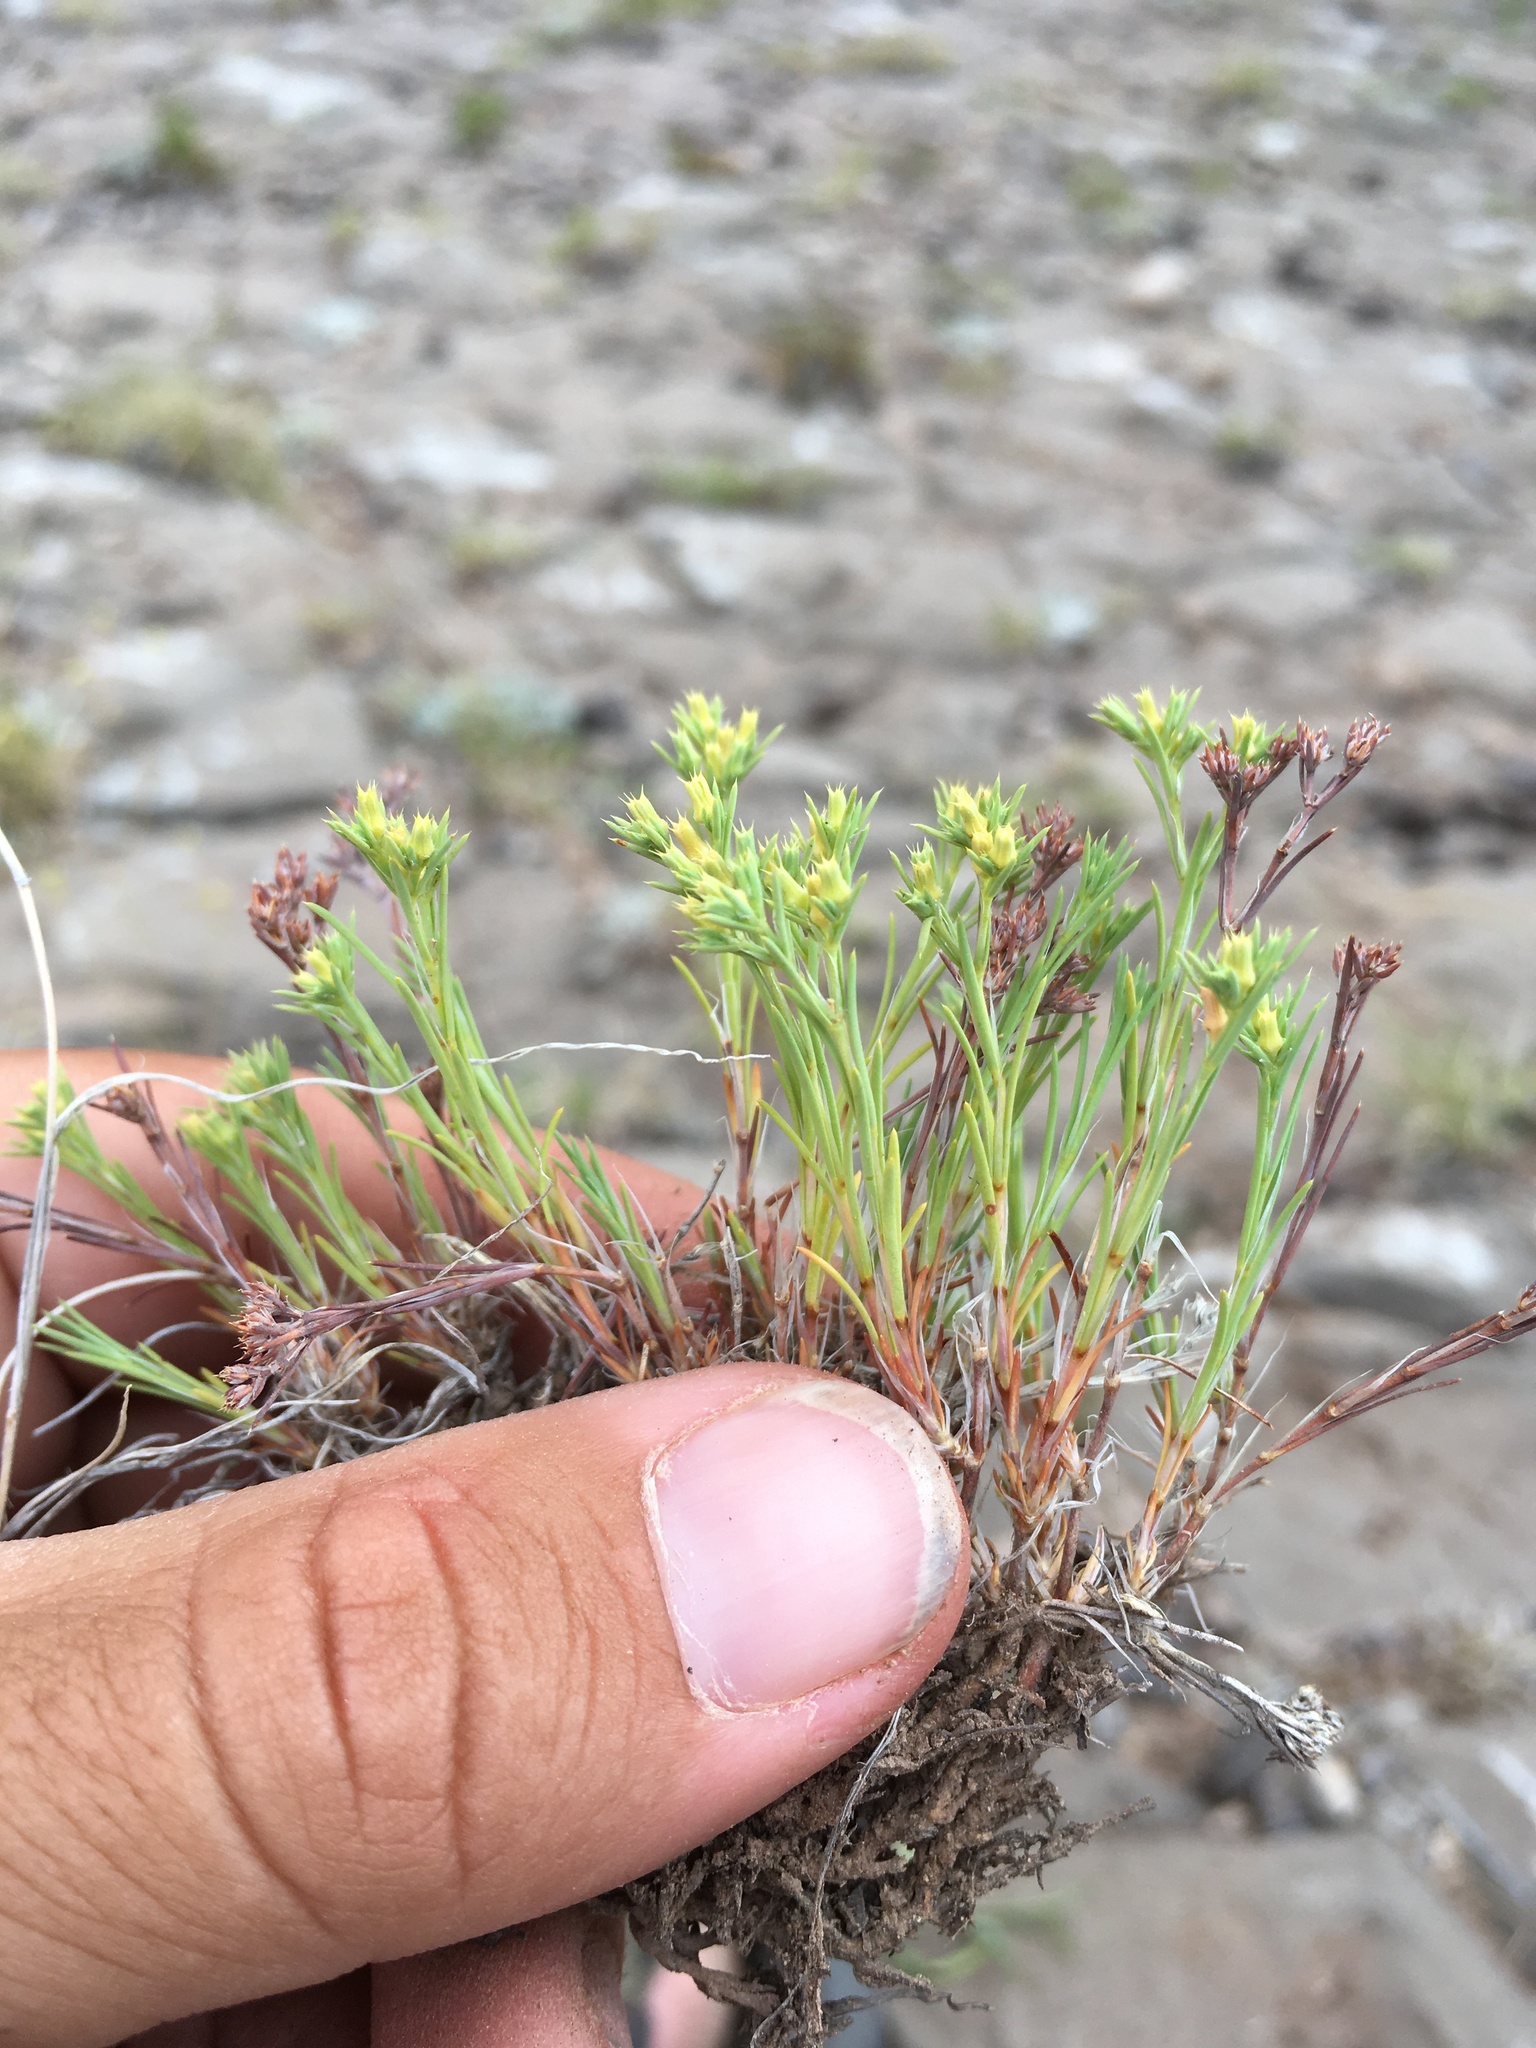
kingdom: Plantae
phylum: Tracheophyta
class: Magnoliopsida
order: Caryophyllales
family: Caryophyllaceae
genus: Paronychia
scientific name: Paronychia jamesii
